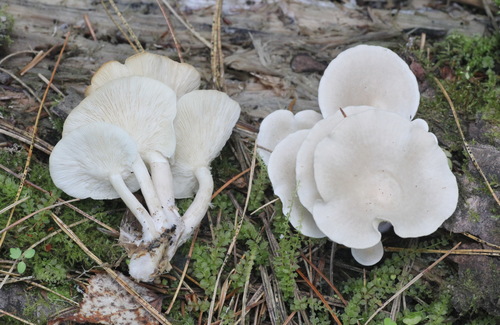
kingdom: Fungi
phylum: Basidiomycota
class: Agaricomycetes
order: Agaricales
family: Lyophyllaceae
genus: Ossicaulis
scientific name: Ossicaulis lignatilis
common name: Mealy oyster
